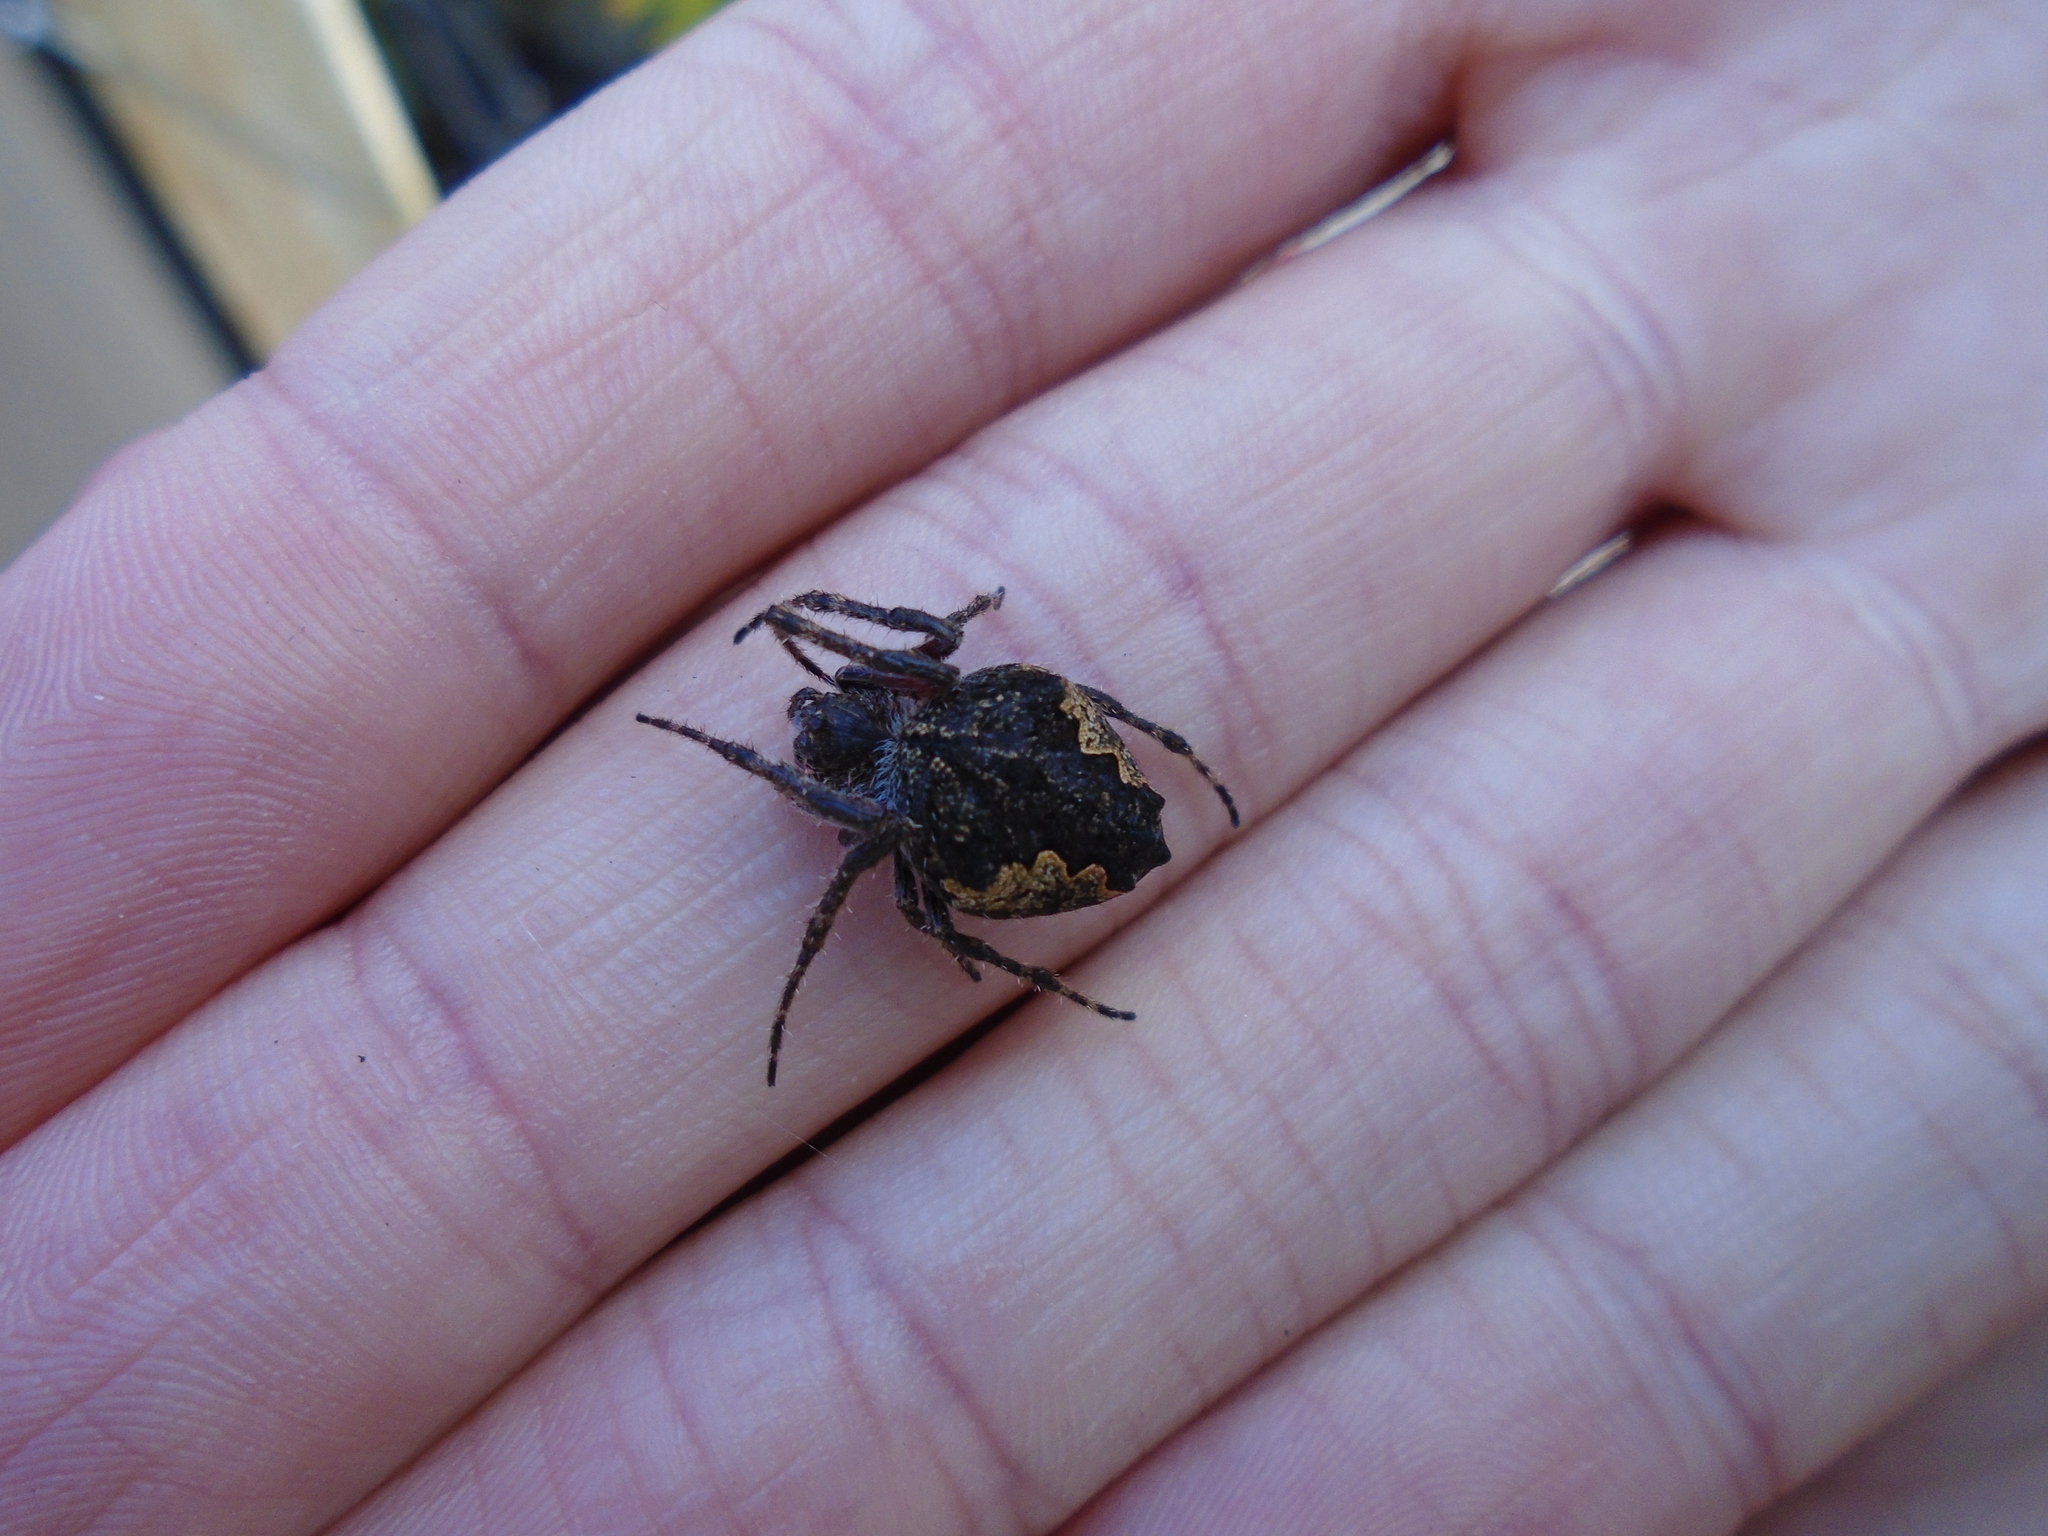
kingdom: Animalia
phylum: Arthropoda
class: Arachnida
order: Araneae
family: Araneidae
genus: Eriophora
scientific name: Eriophora pustulosa
